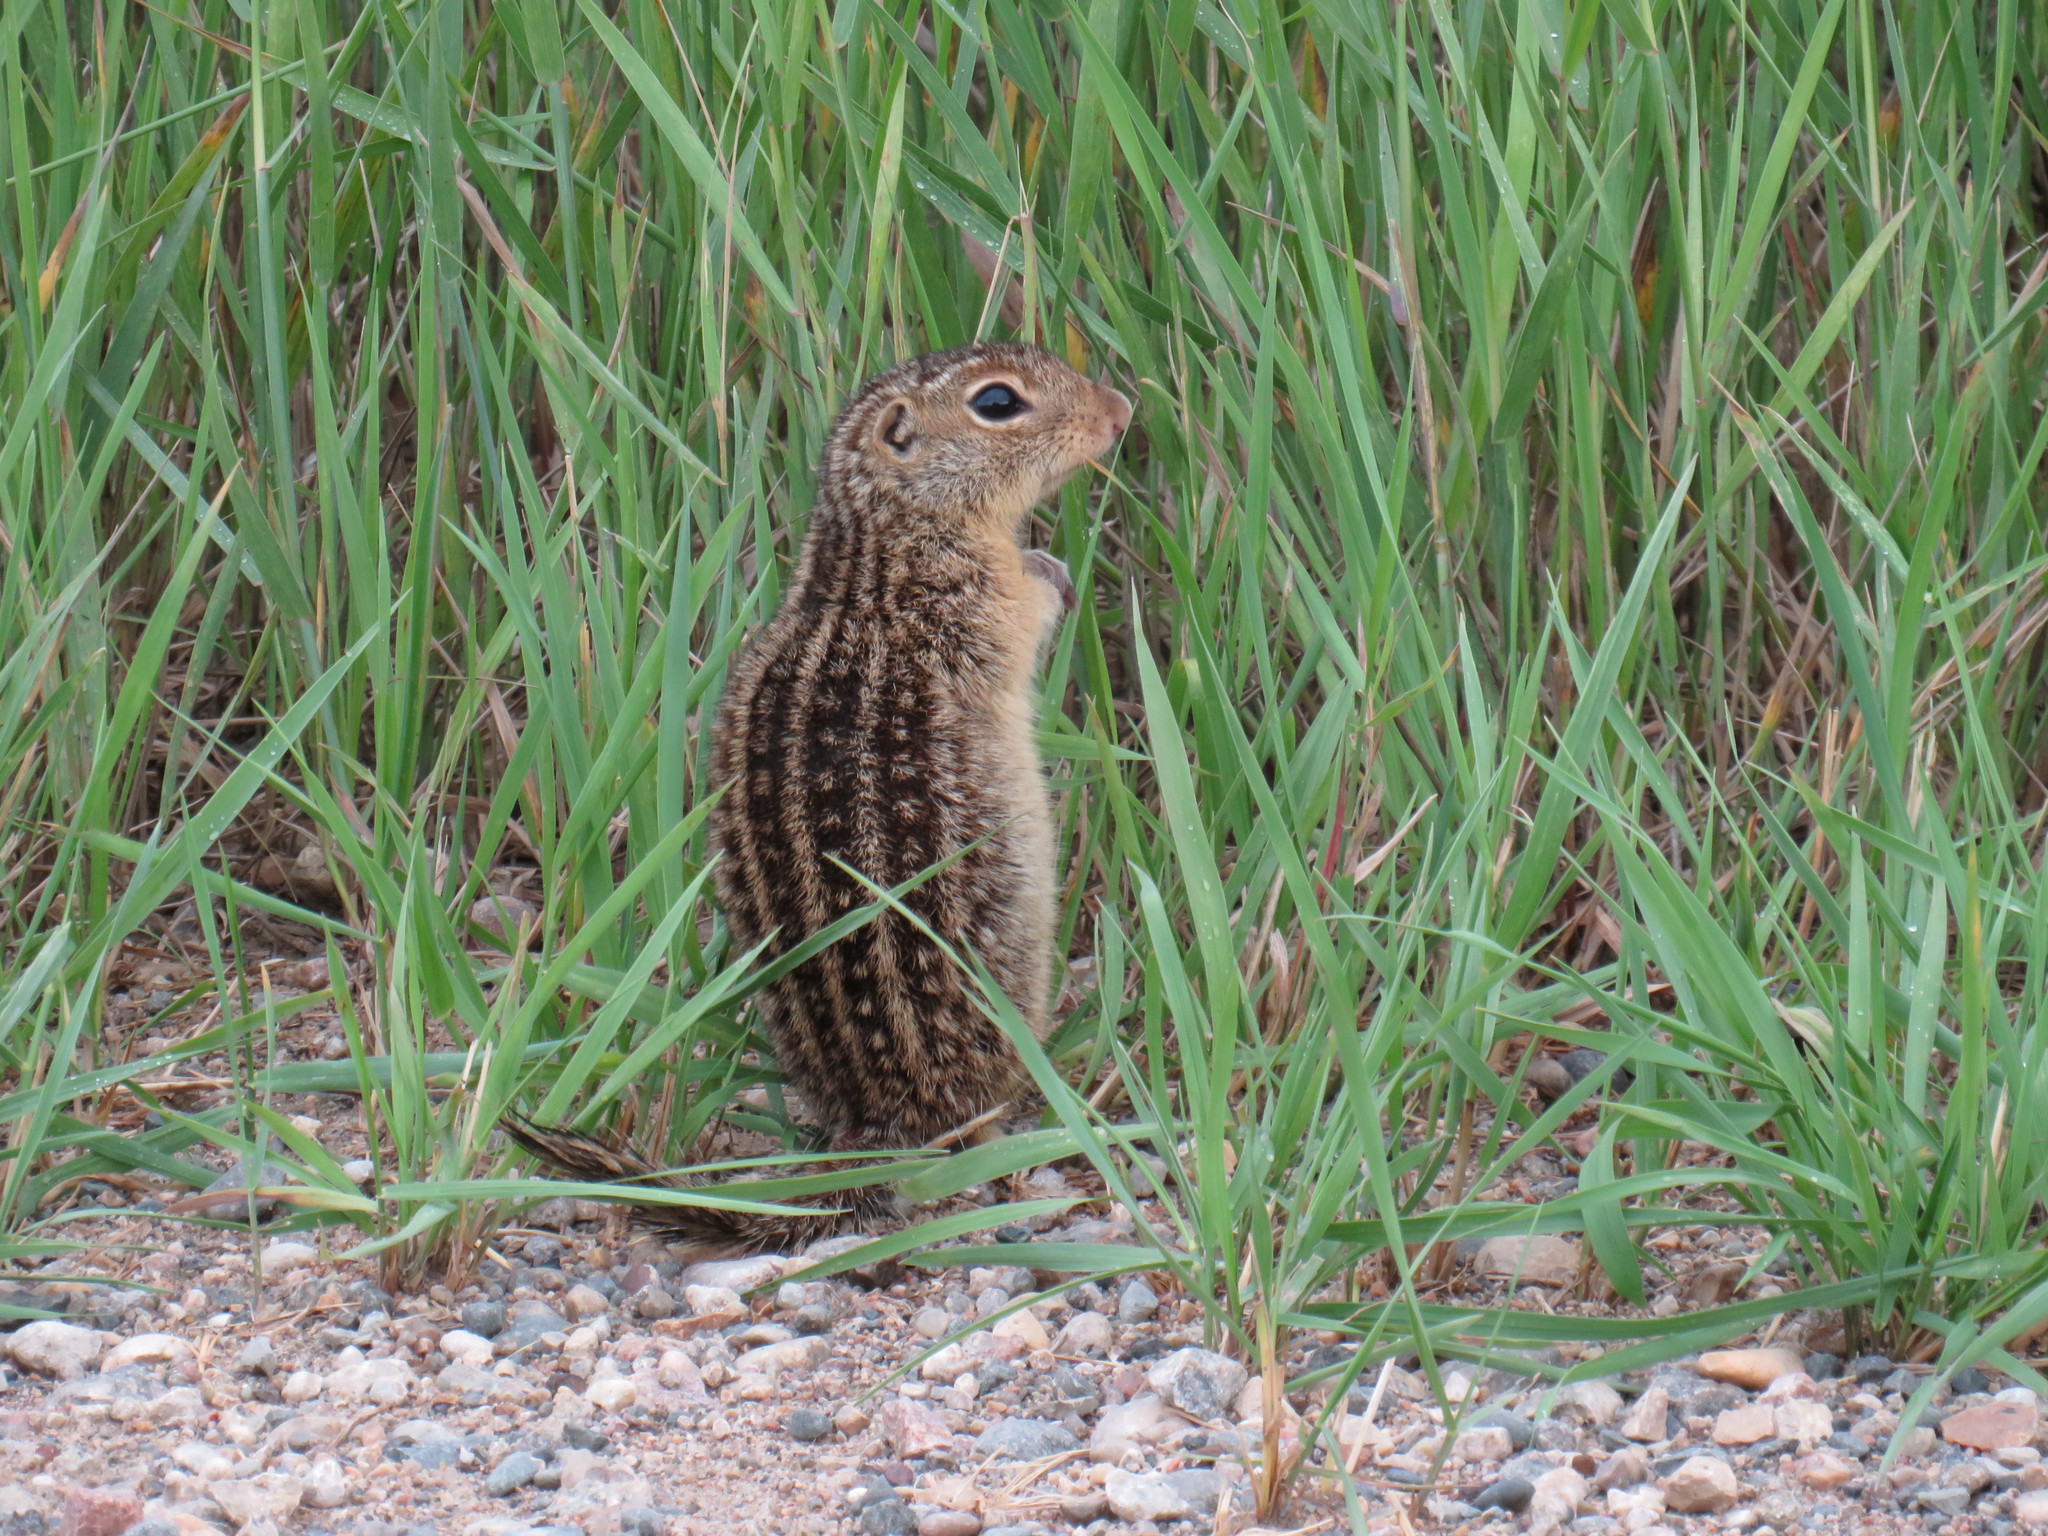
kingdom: Animalia
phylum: Chordata
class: Mammalia
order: Rodentia
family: Sciuridae
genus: Ictidomys
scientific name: Ictidomys tridecemlineatus
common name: Thirteen-lined ground squirrel
